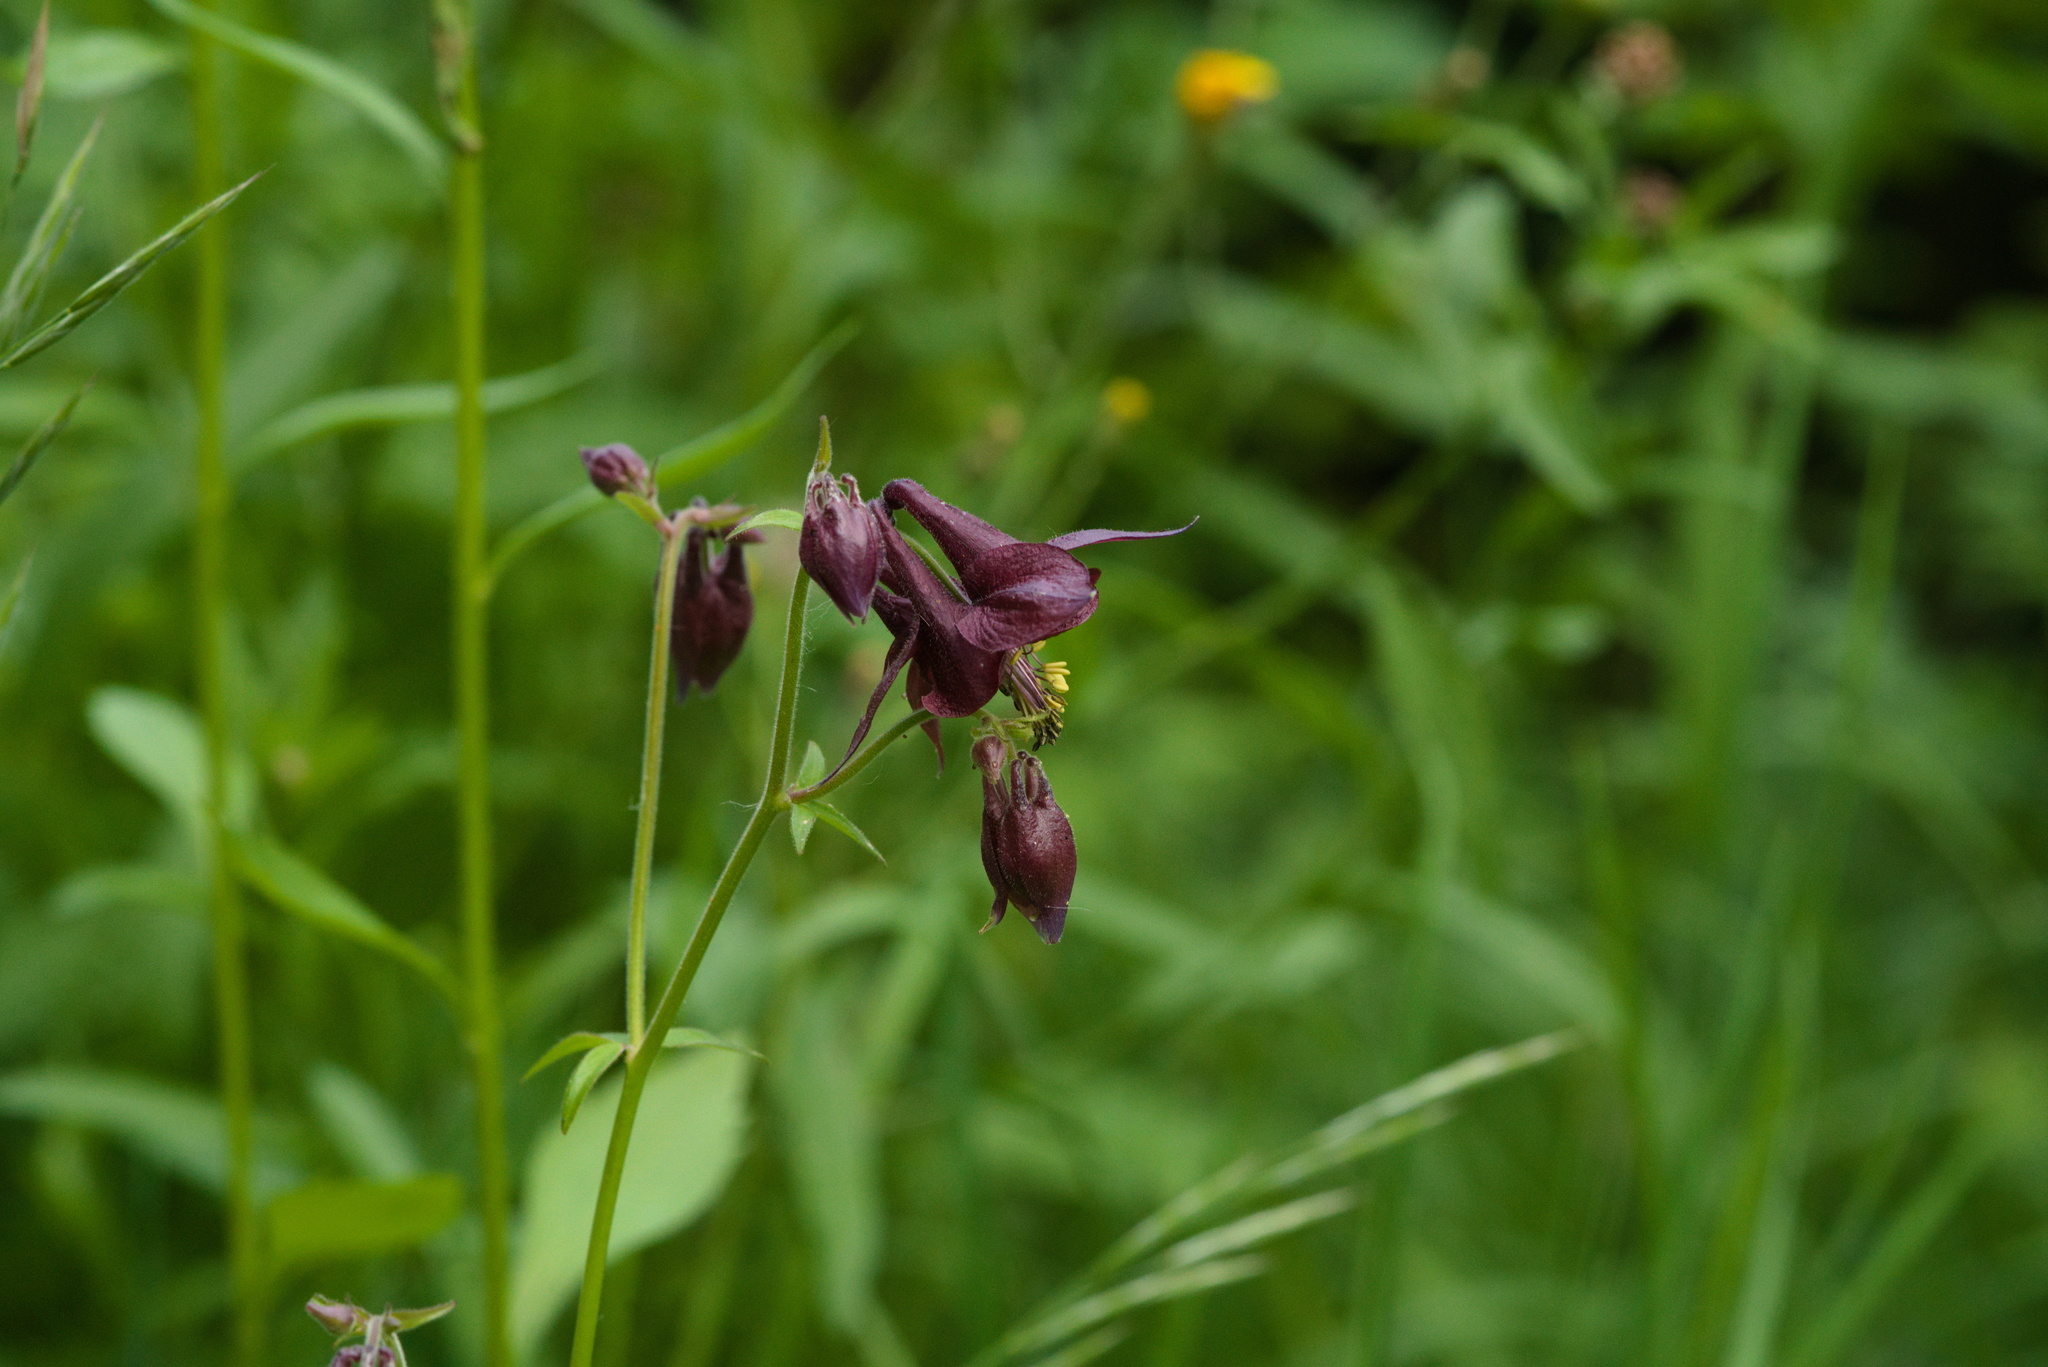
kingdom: Plantae
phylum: Tracheophyta
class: Magnoliopsida
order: Ranunculales
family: Ranunculaceae
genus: Aquilegia
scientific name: Aquilegia atrata
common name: Dark columbine
